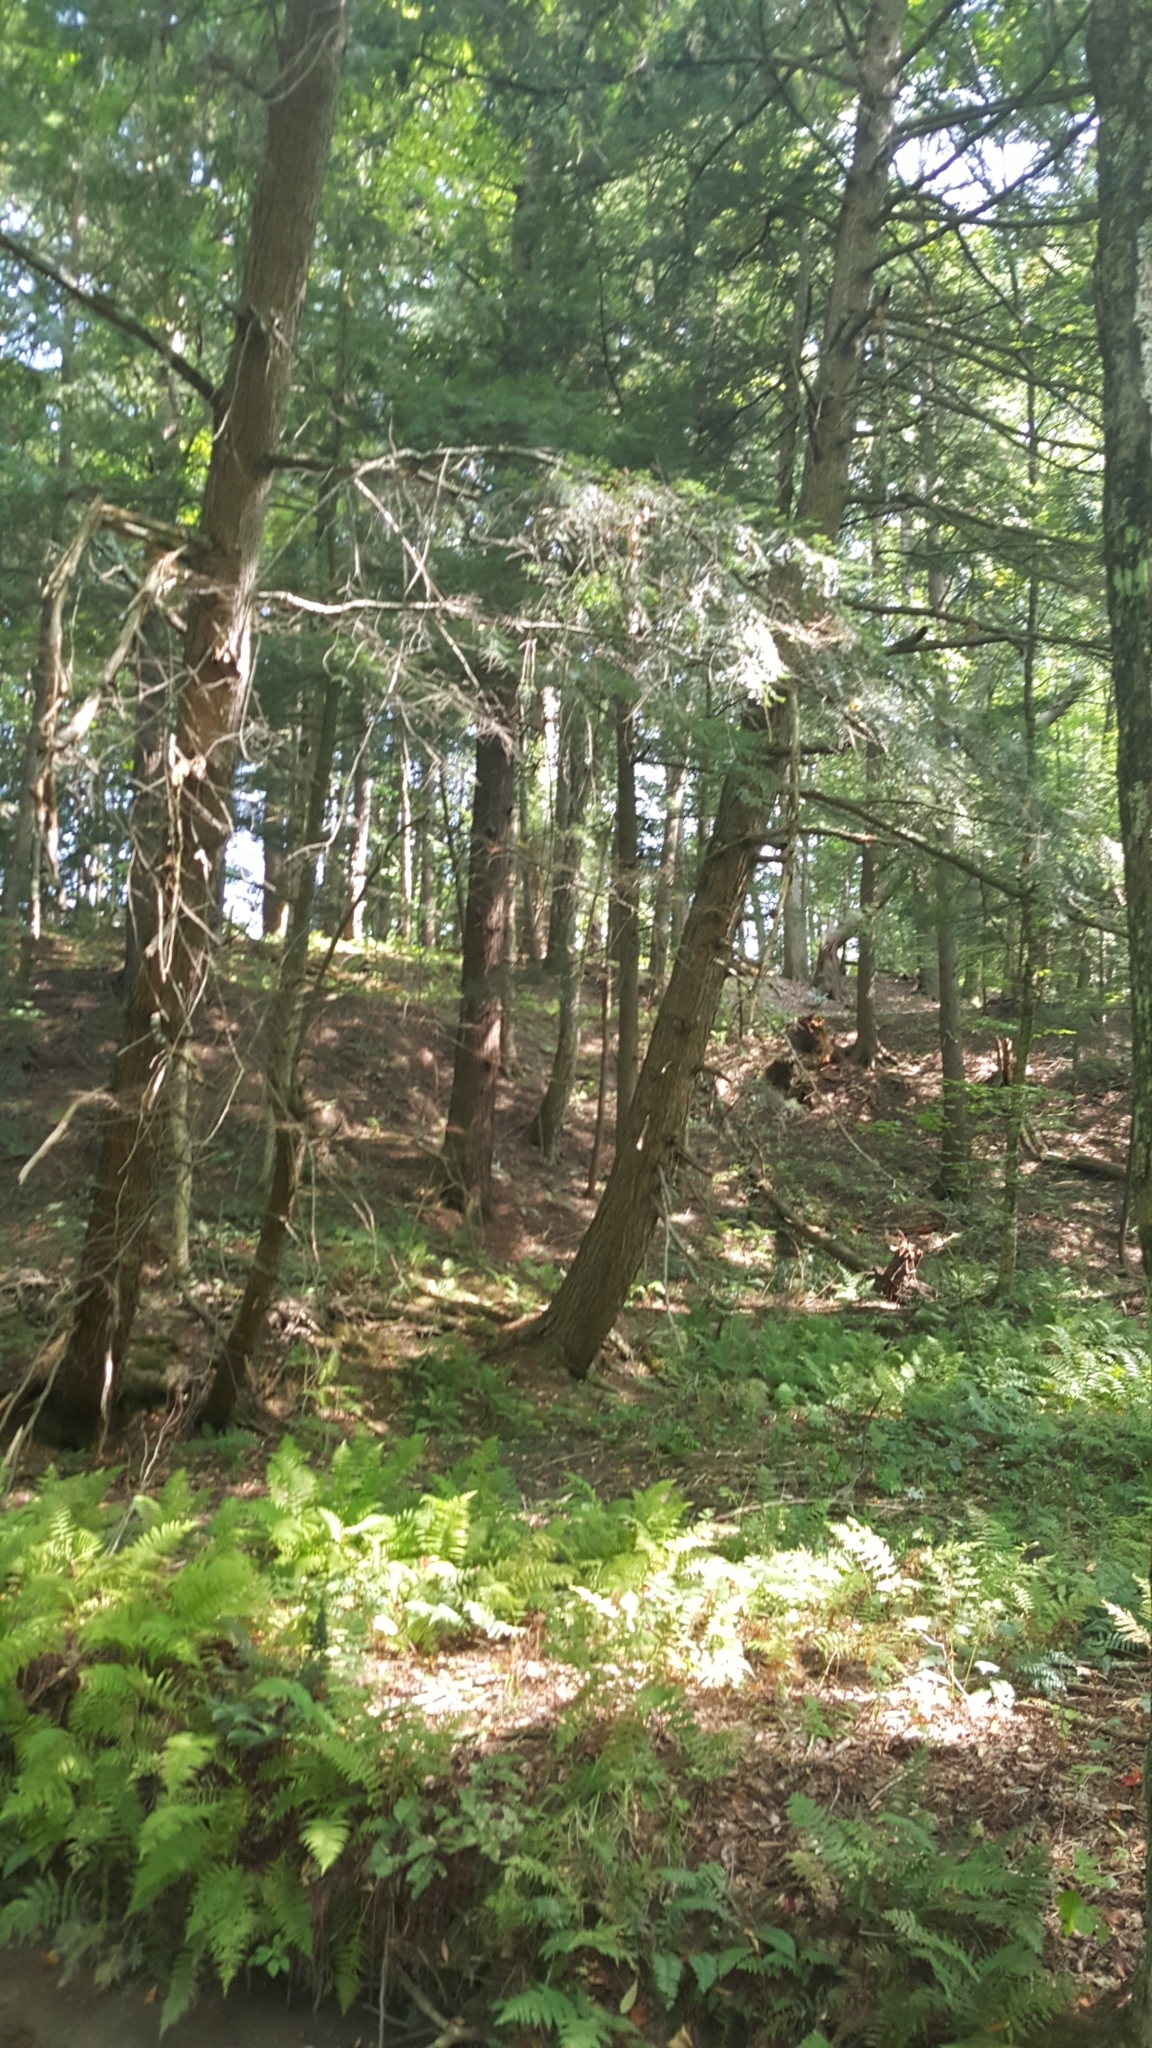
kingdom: Plantae
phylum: Tracheophyta
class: Pinopsida
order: Pinales
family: Pinaceae
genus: Tsuga
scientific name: Tsuga canadensis
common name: Eastern hemlock
